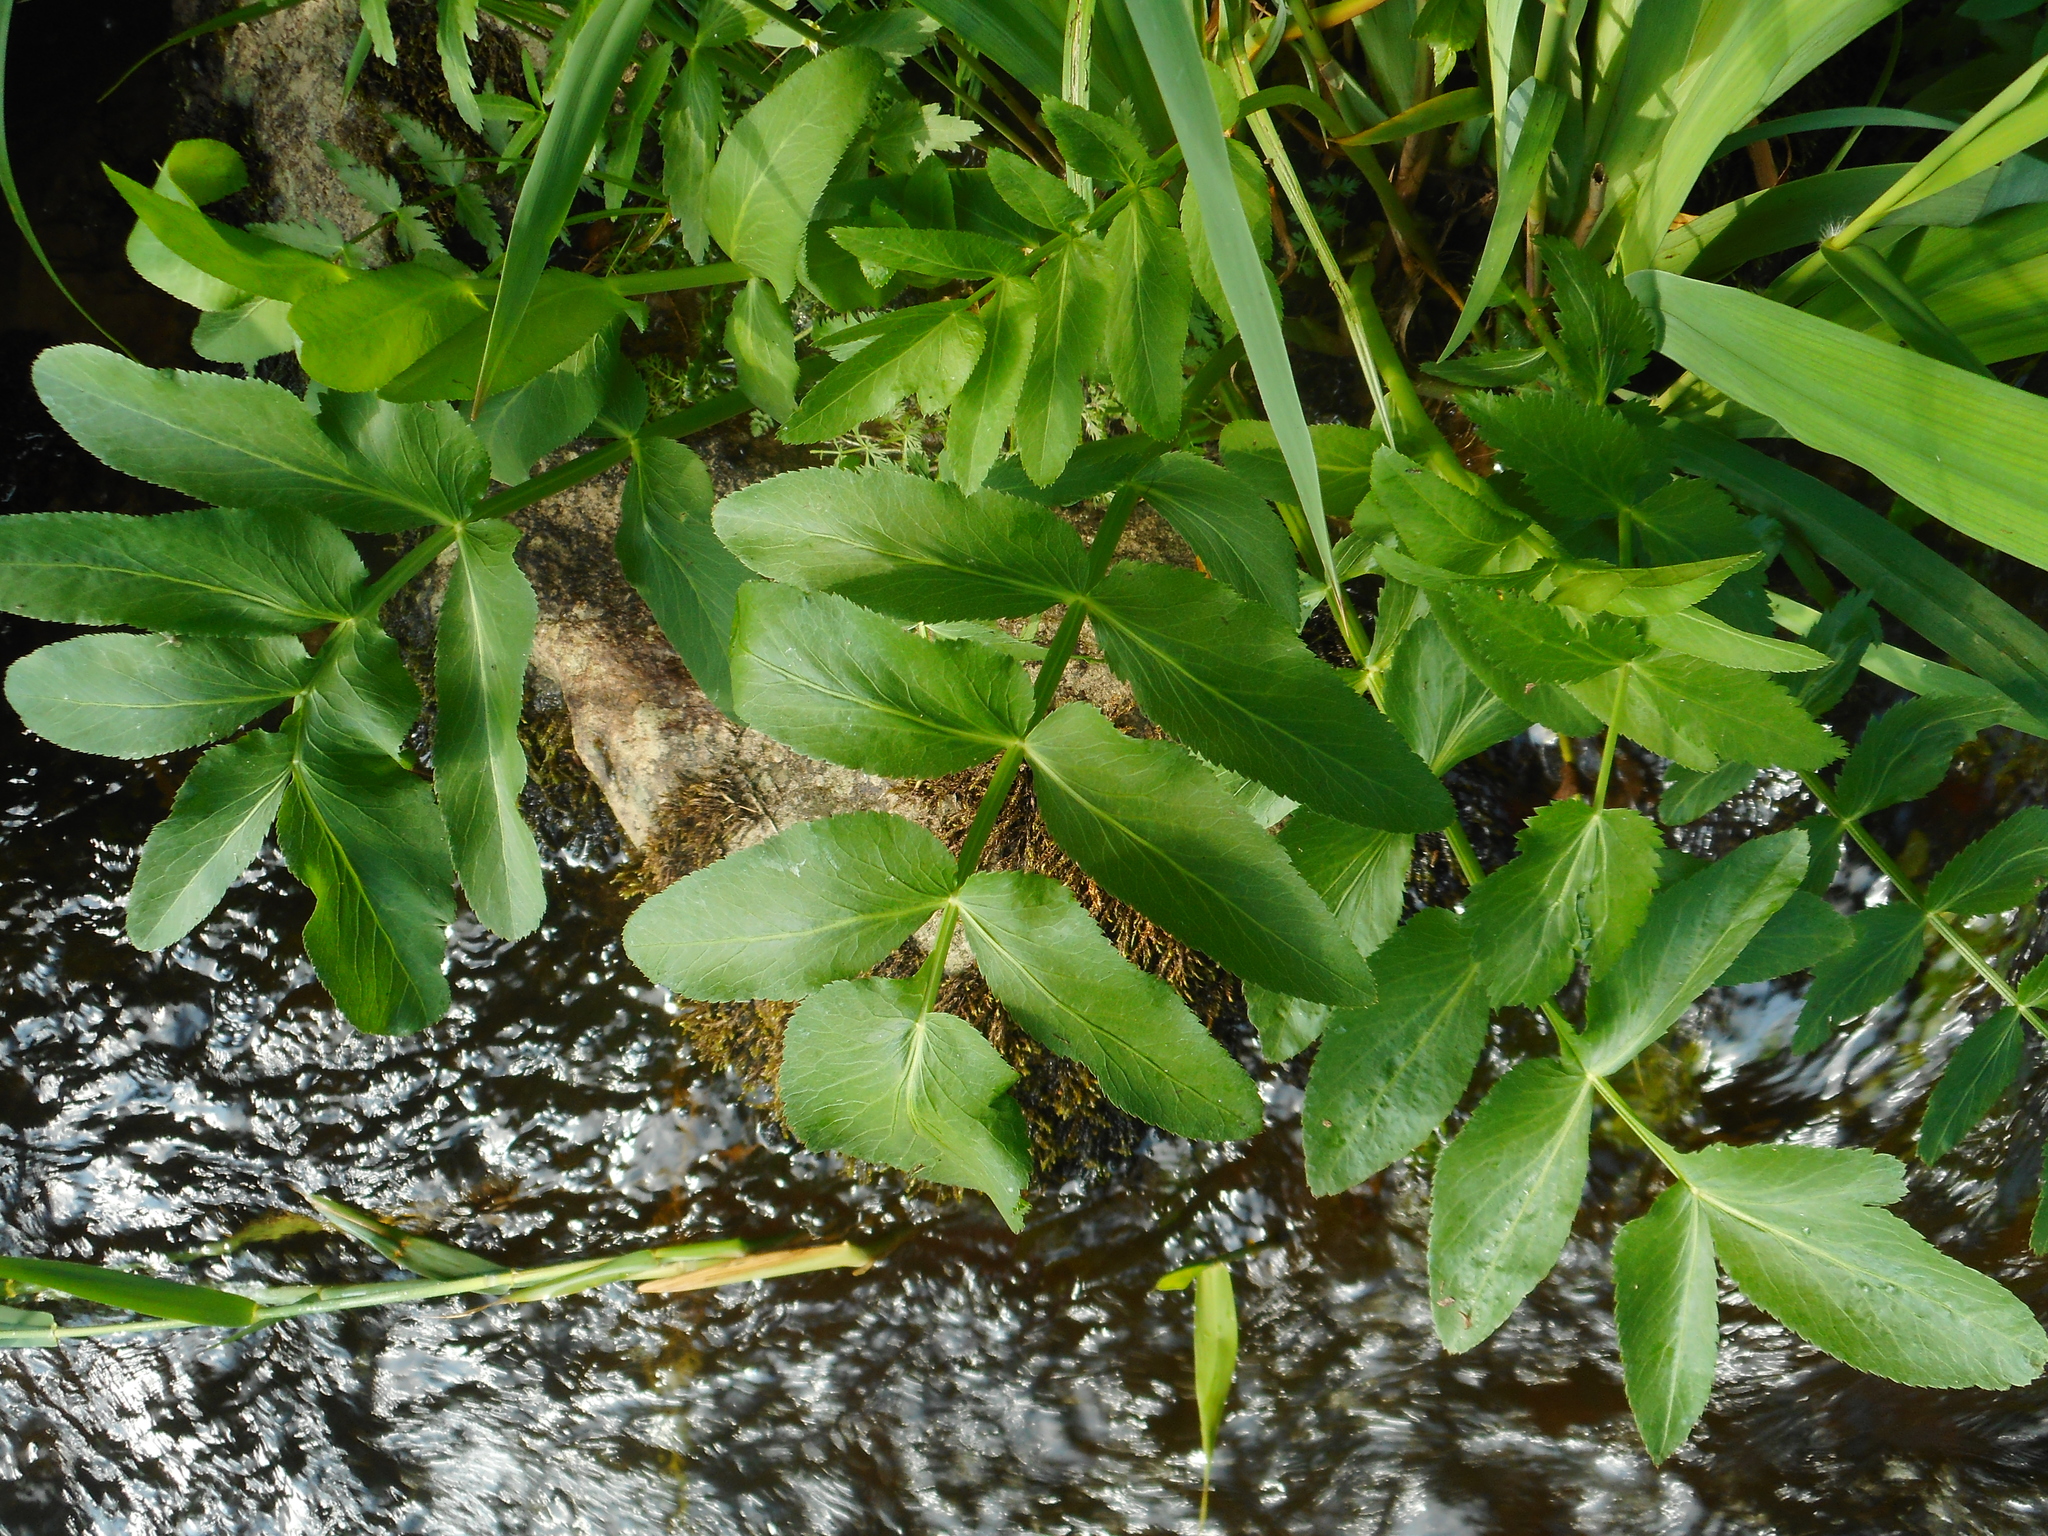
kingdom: Plantae
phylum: Tracheophyta
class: Magnoliopsida
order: Apiales
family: Apiaceae
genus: Sium
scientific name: Sium latifolium
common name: Greater water-parsnip
